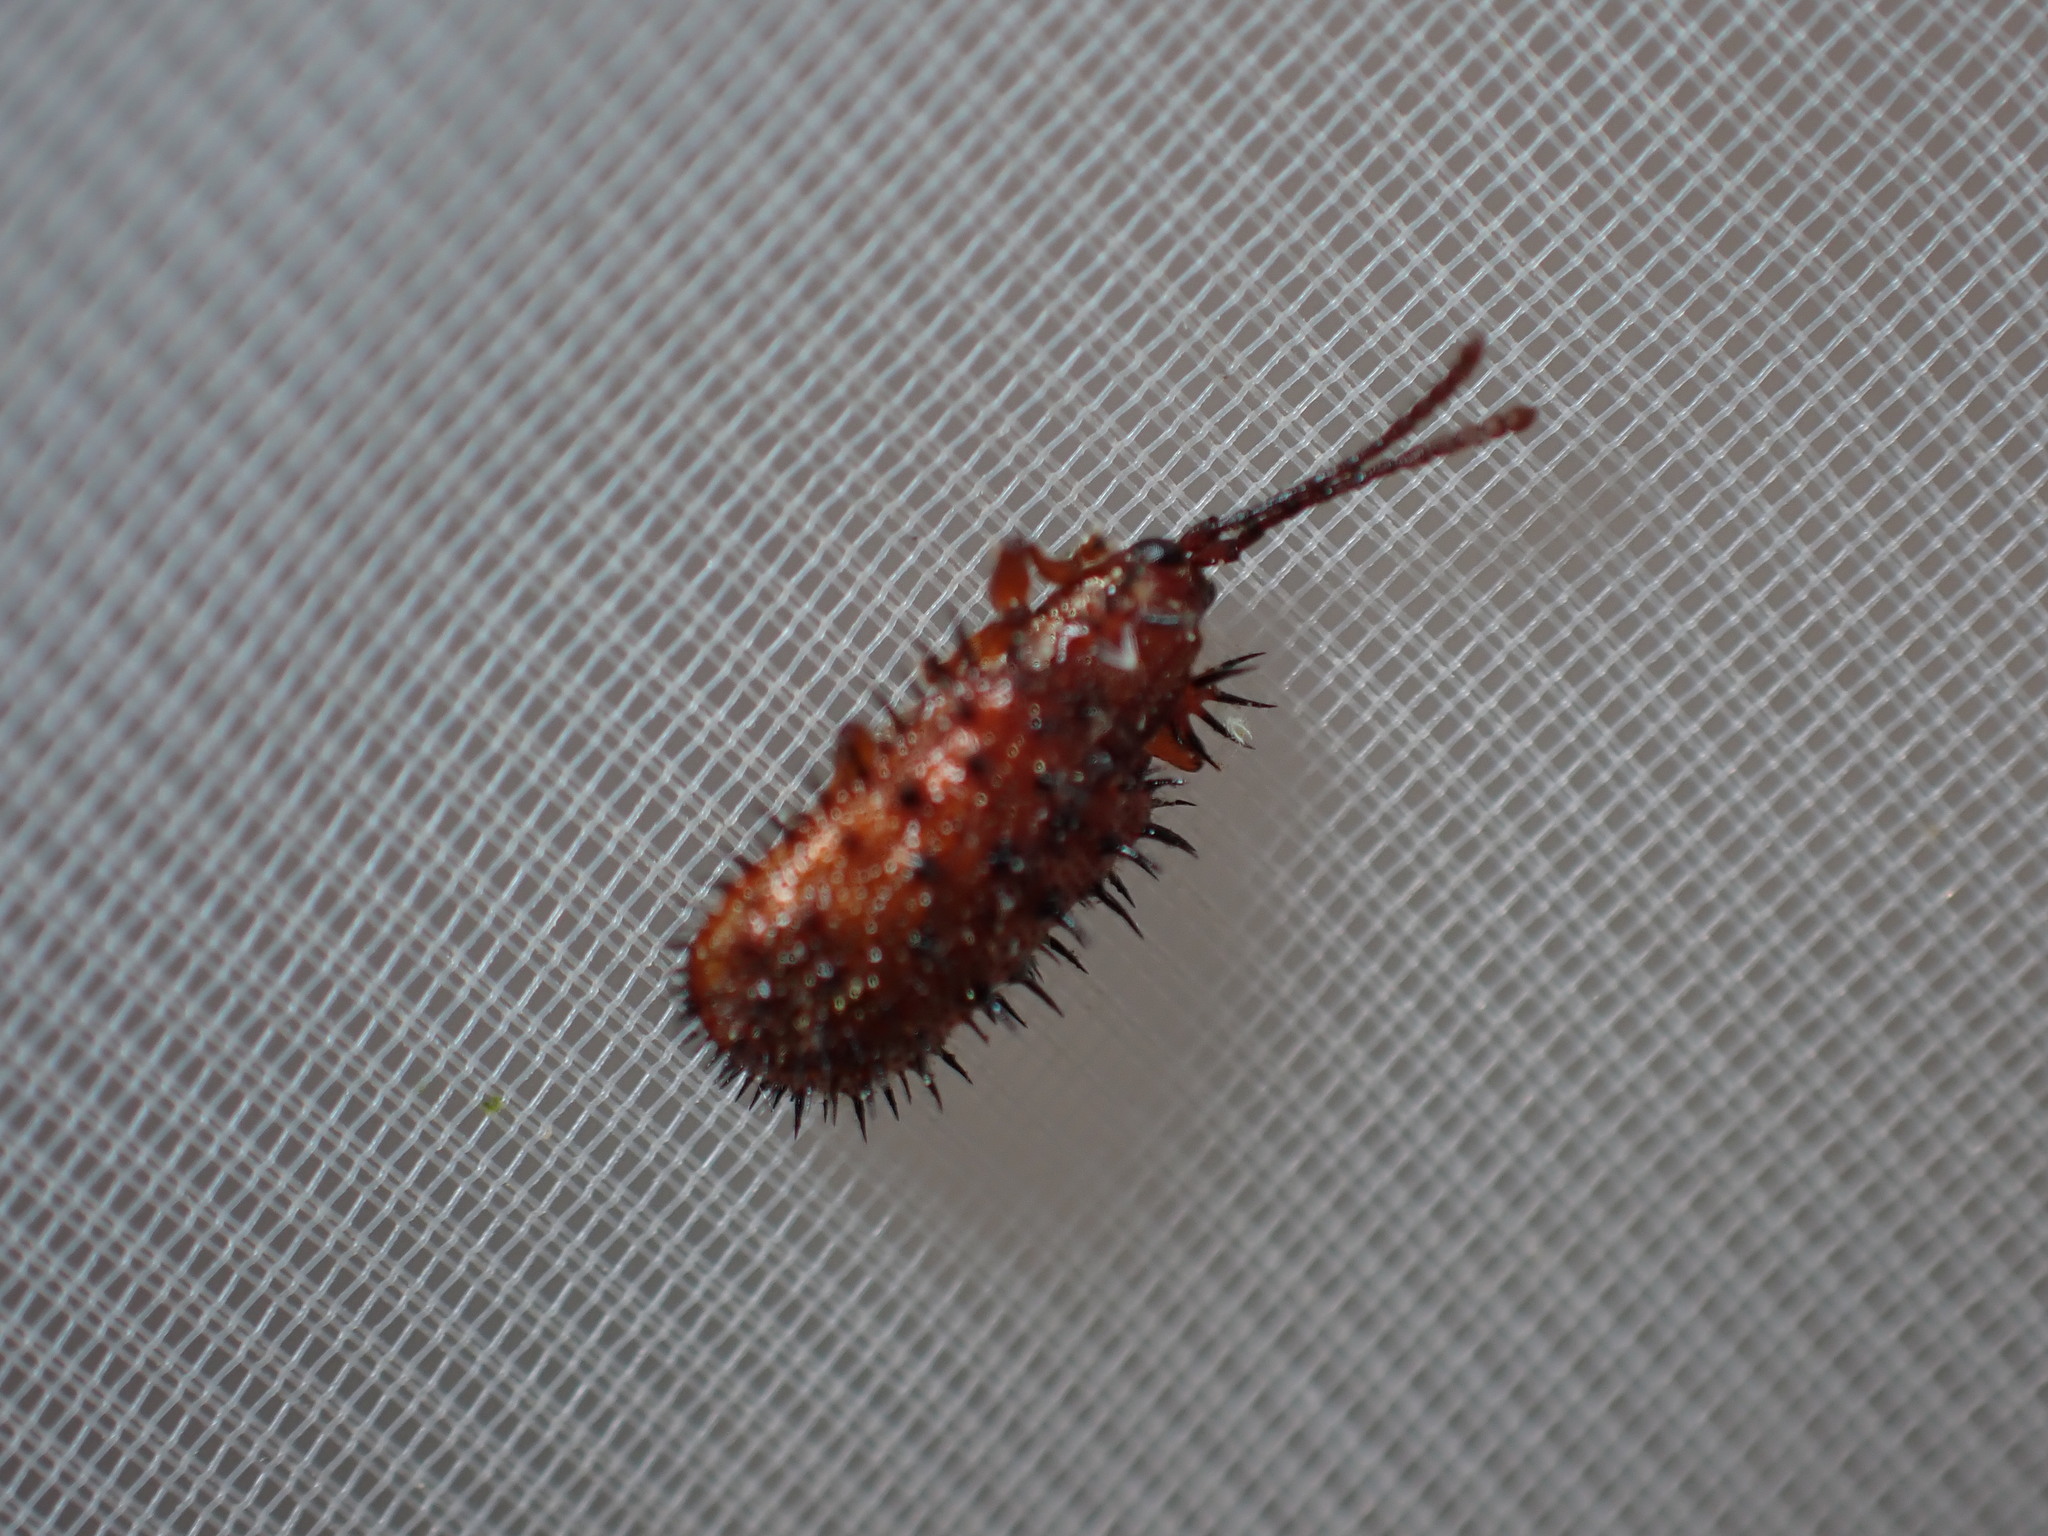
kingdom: Animalia
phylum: Arthropoda
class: Insecta
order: Coleoptera
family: Chrysomelidae
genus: Dicladispa
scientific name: Dicladispa testacea
